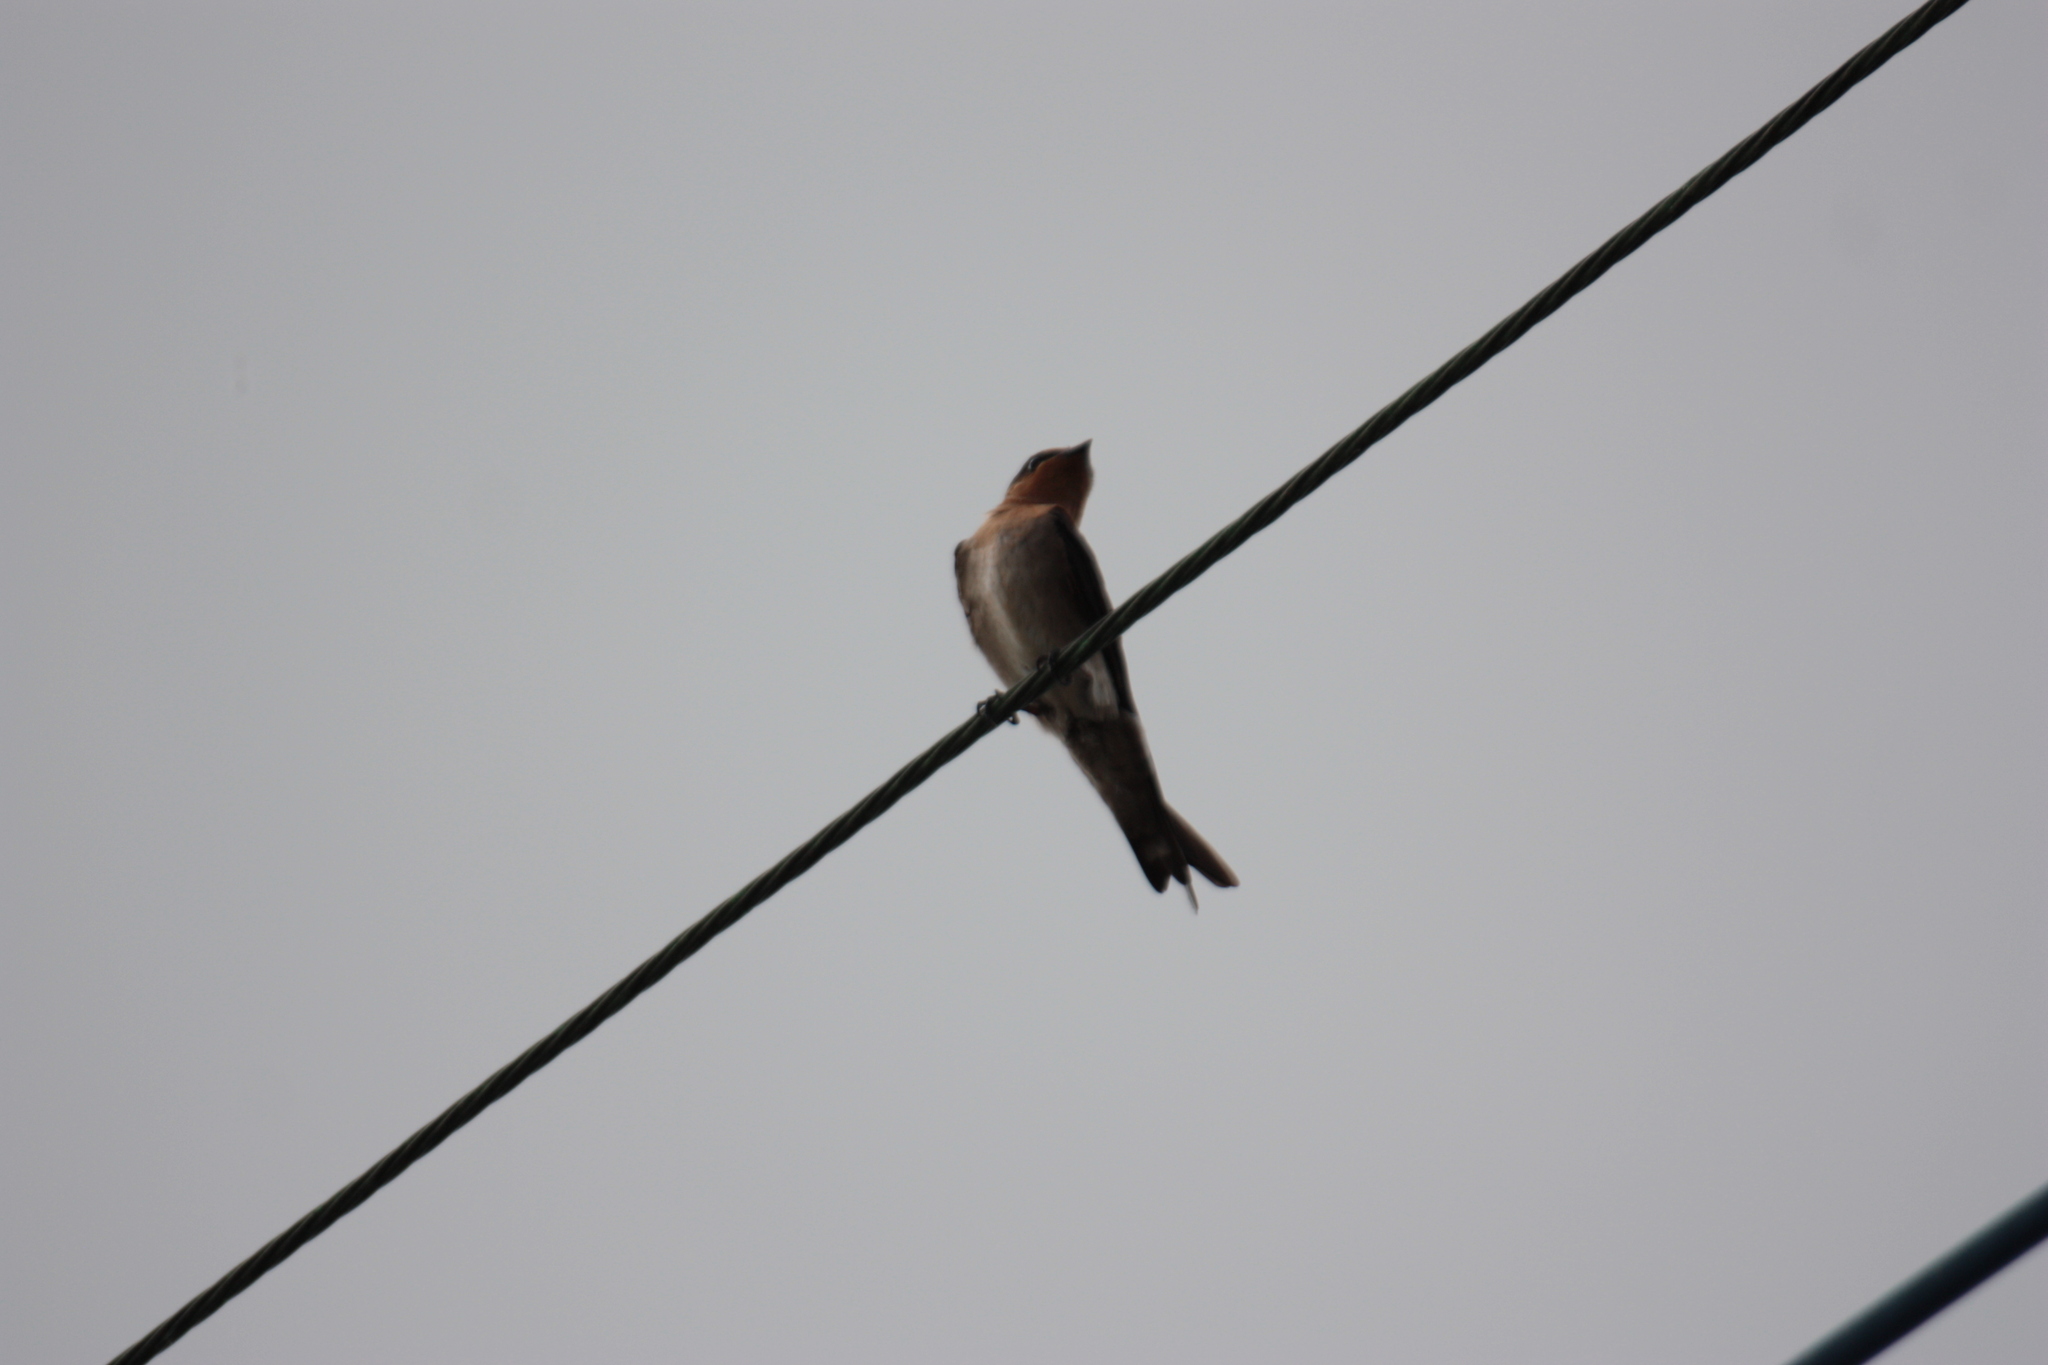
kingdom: Animalia
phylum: Chordata
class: Aves
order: Passeriformes
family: Hirundinidae
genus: Hirundo
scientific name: Hirundo tahitica
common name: Pacific swallow
